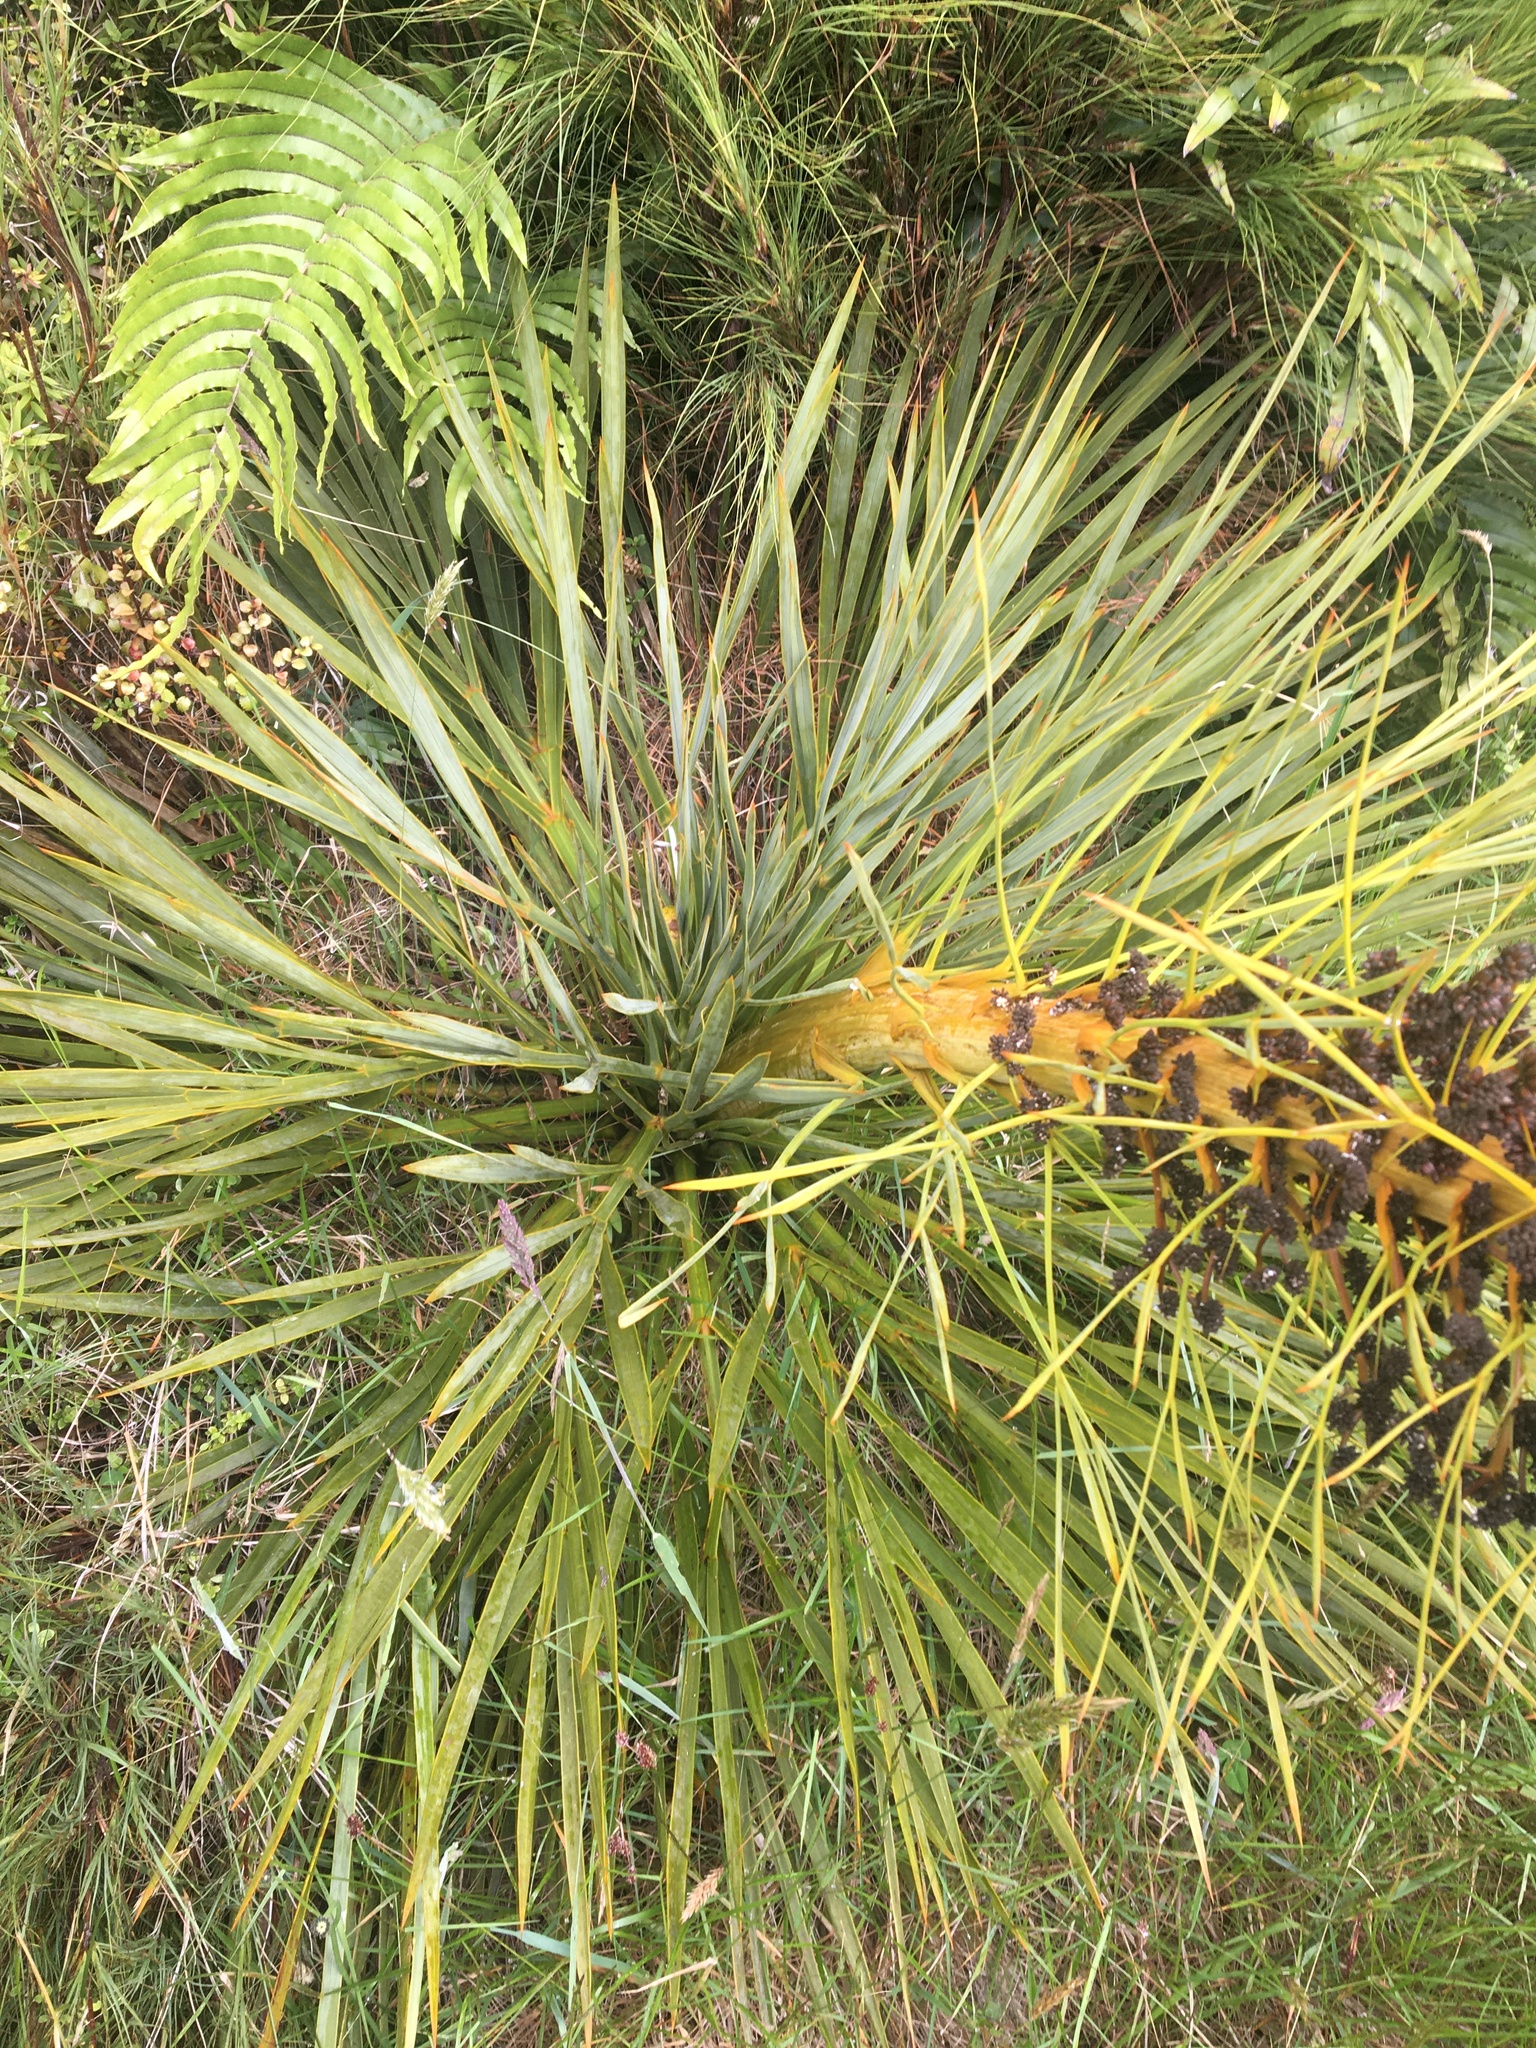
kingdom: Plantae
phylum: Tracheophyta
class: Magnoliopsida
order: Apiales
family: Apiaceae
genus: Aciphylla
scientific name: Aciphylla aurea
